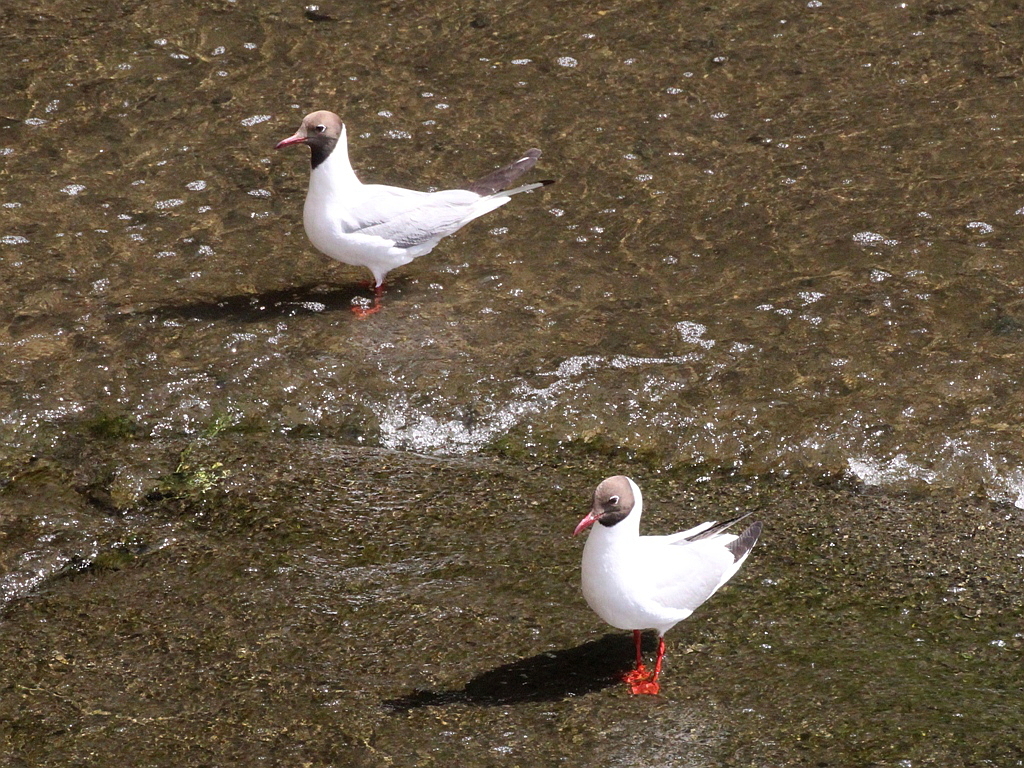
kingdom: Animalia
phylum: Chordata
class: Aves
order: Charadriiformes
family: Laridae
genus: Chroicocephalus
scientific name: Chroicocephalus ridibundus
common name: Black-headed gull
